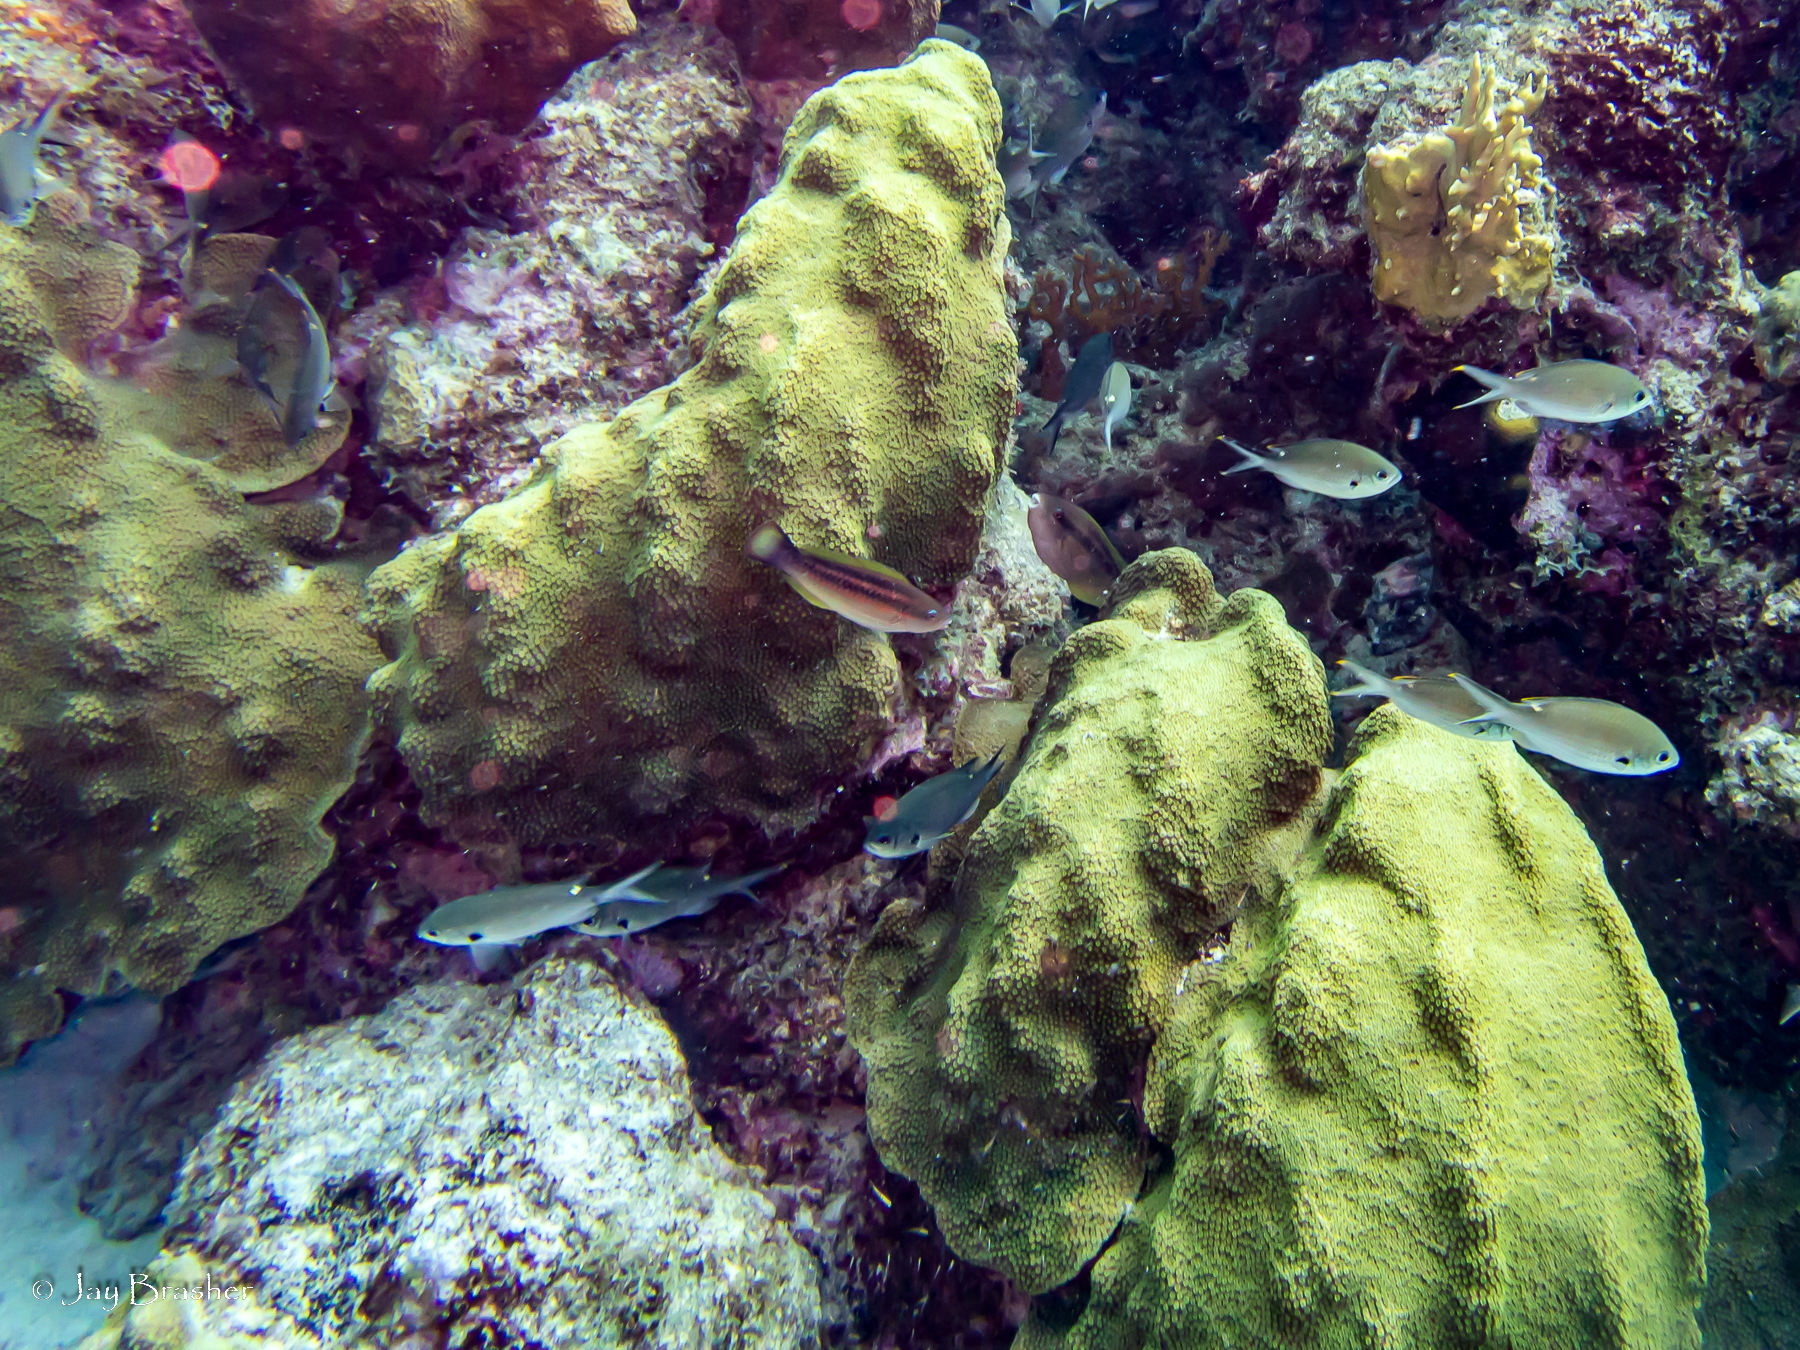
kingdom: Animalia
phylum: Chordata
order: Perciformes
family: Scaridae
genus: Scarus
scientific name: Scarus iseri
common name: Striped parrotfish
